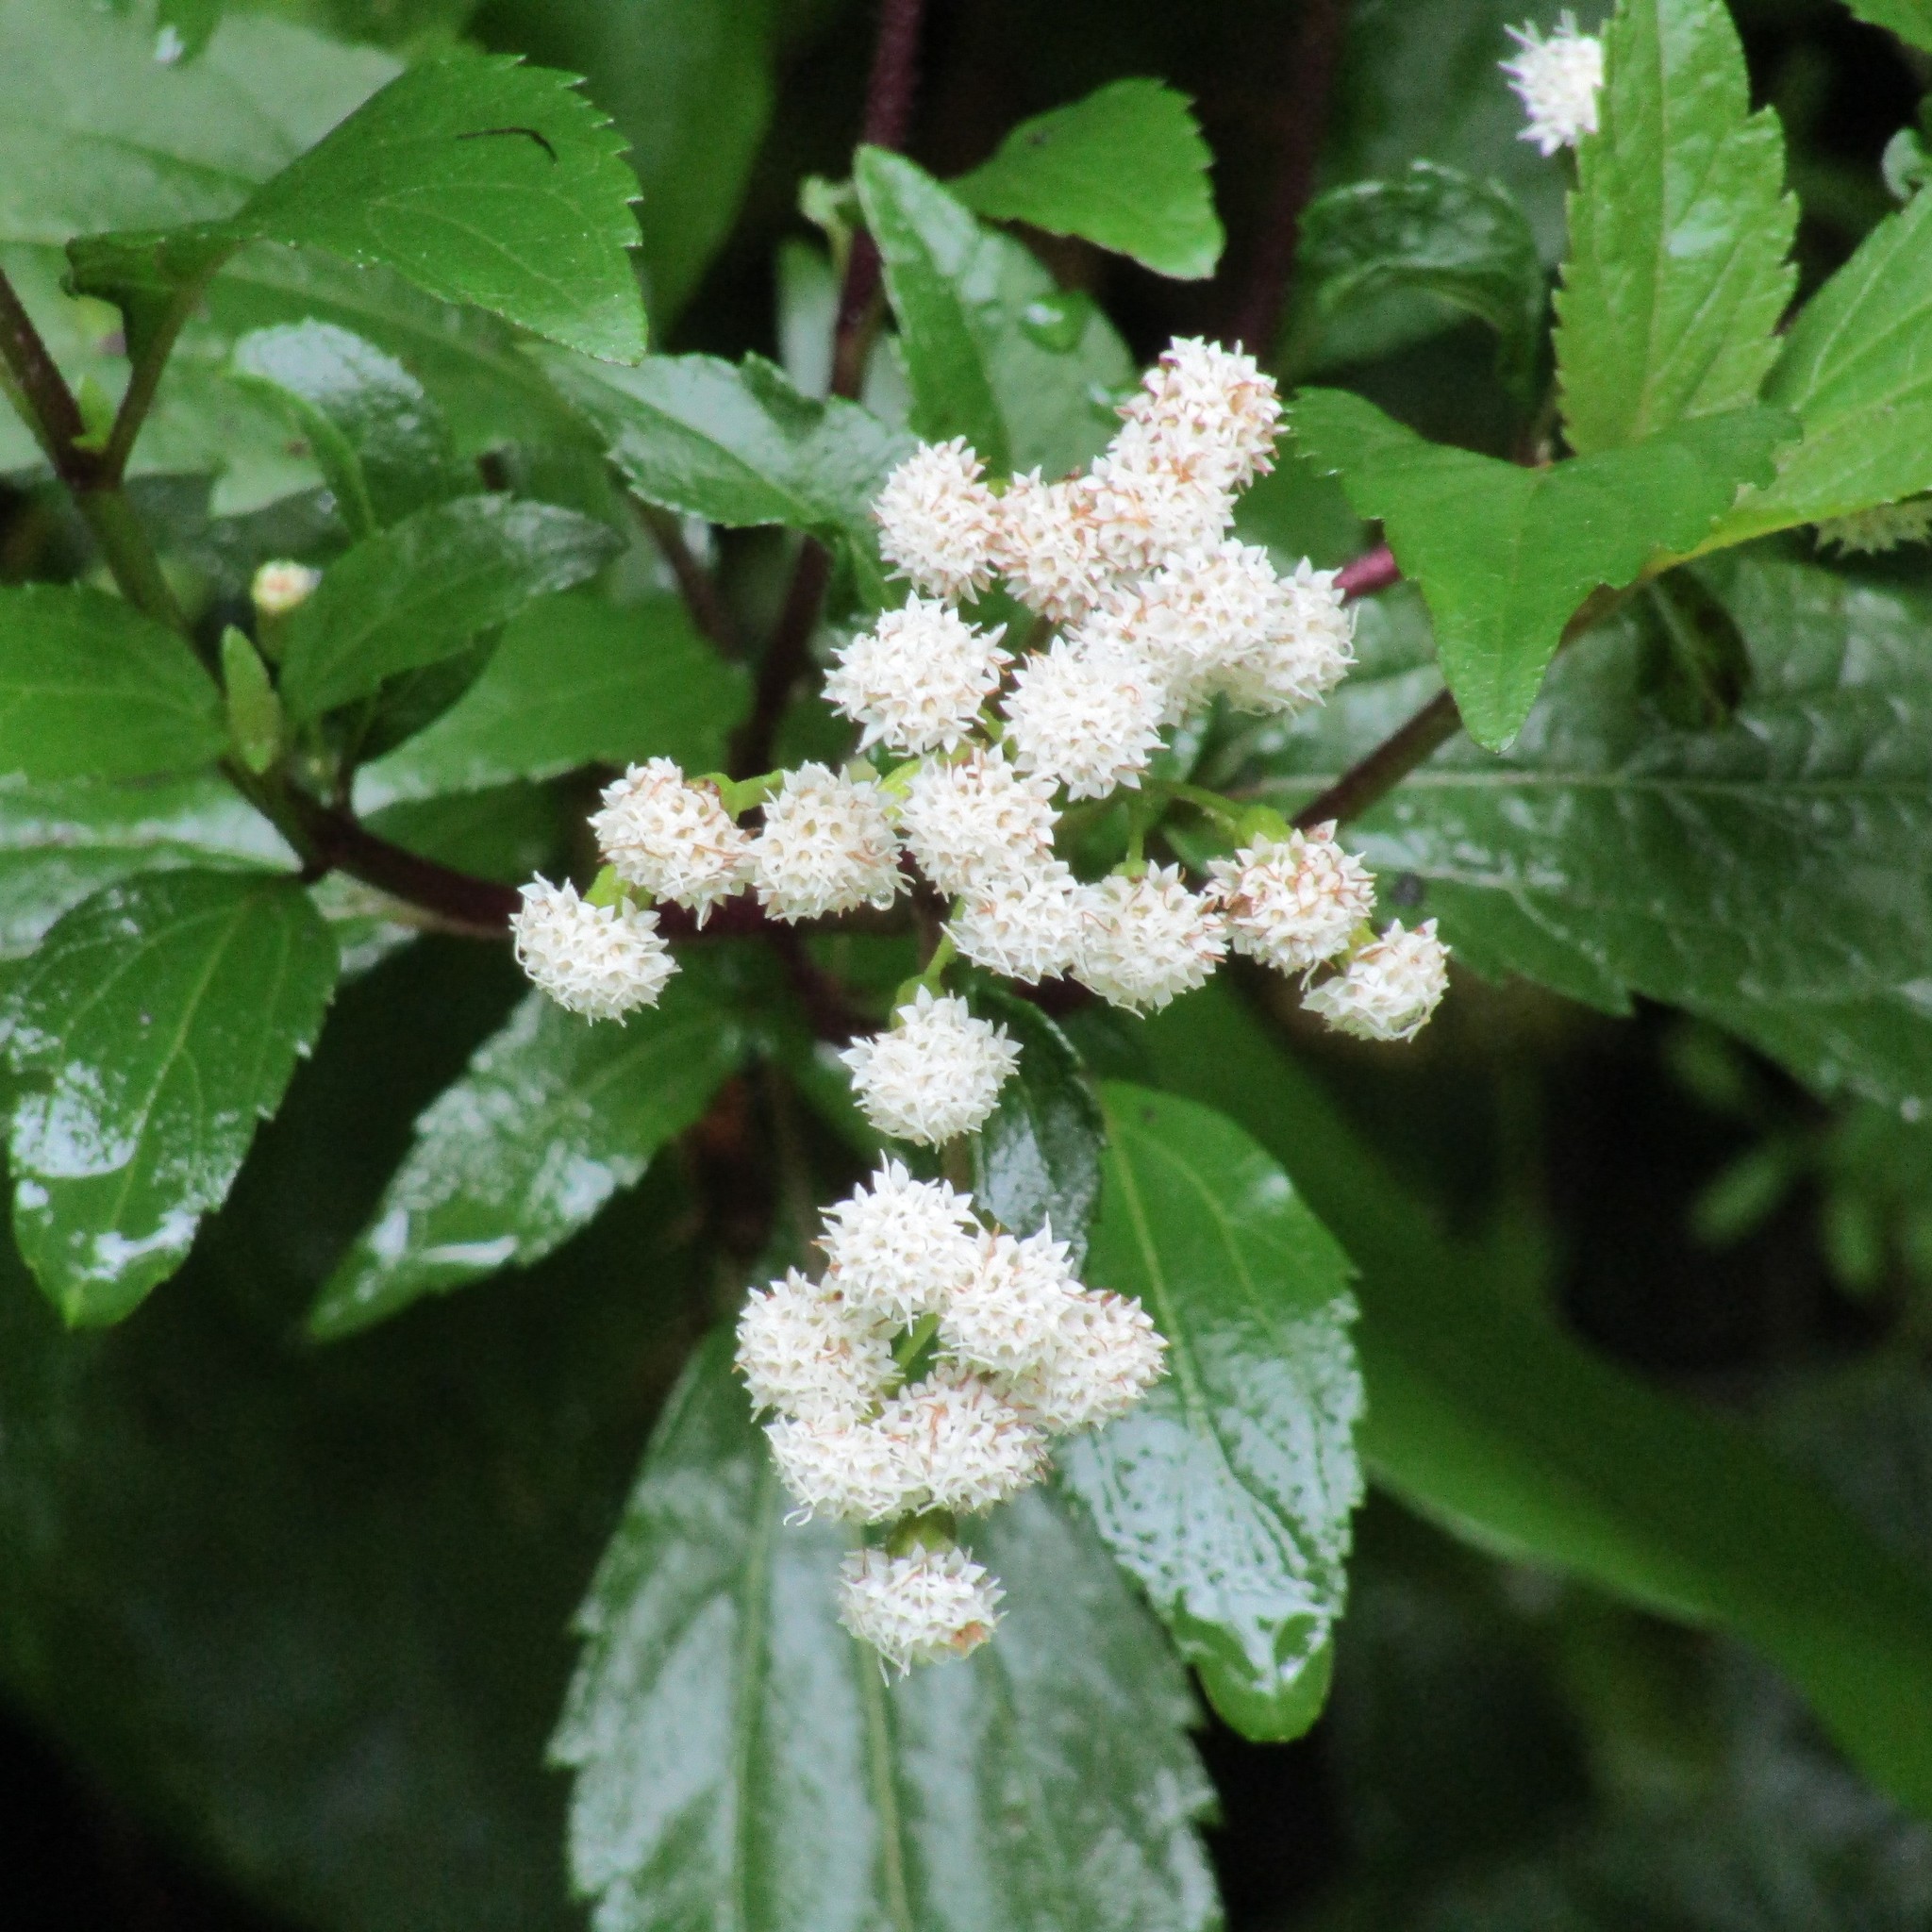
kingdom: Plantae
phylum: Tracheophyta
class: Magnoliopsida
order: Asterales
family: Asteraceae
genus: Ageratina
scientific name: Ageratina riparia
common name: Creeping croftonweed
